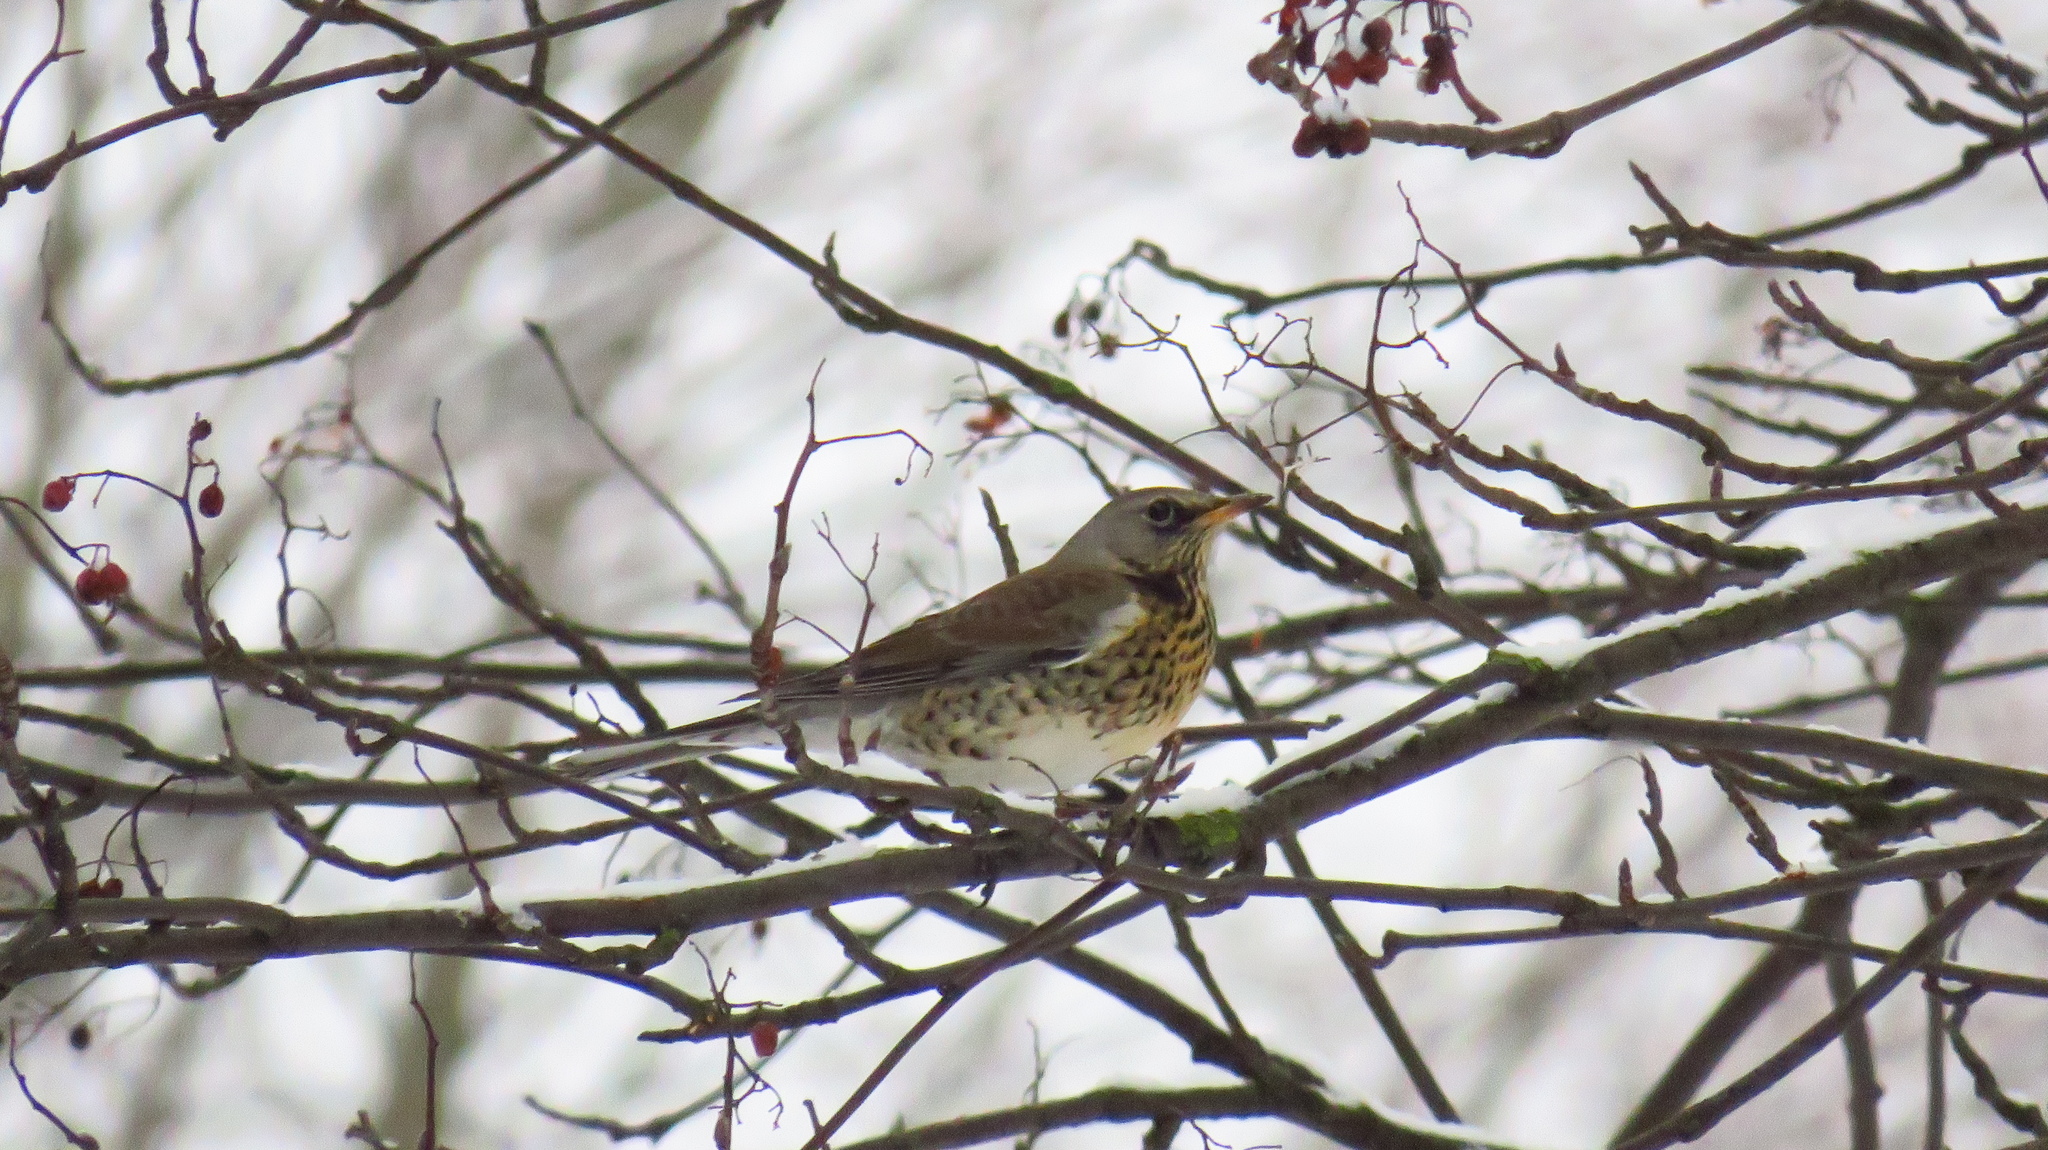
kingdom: Animalia
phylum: Chordata
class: Aves
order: Passeriformes
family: Turdidae
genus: Turdus
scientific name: Turdus pilaris
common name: Fieldfare
